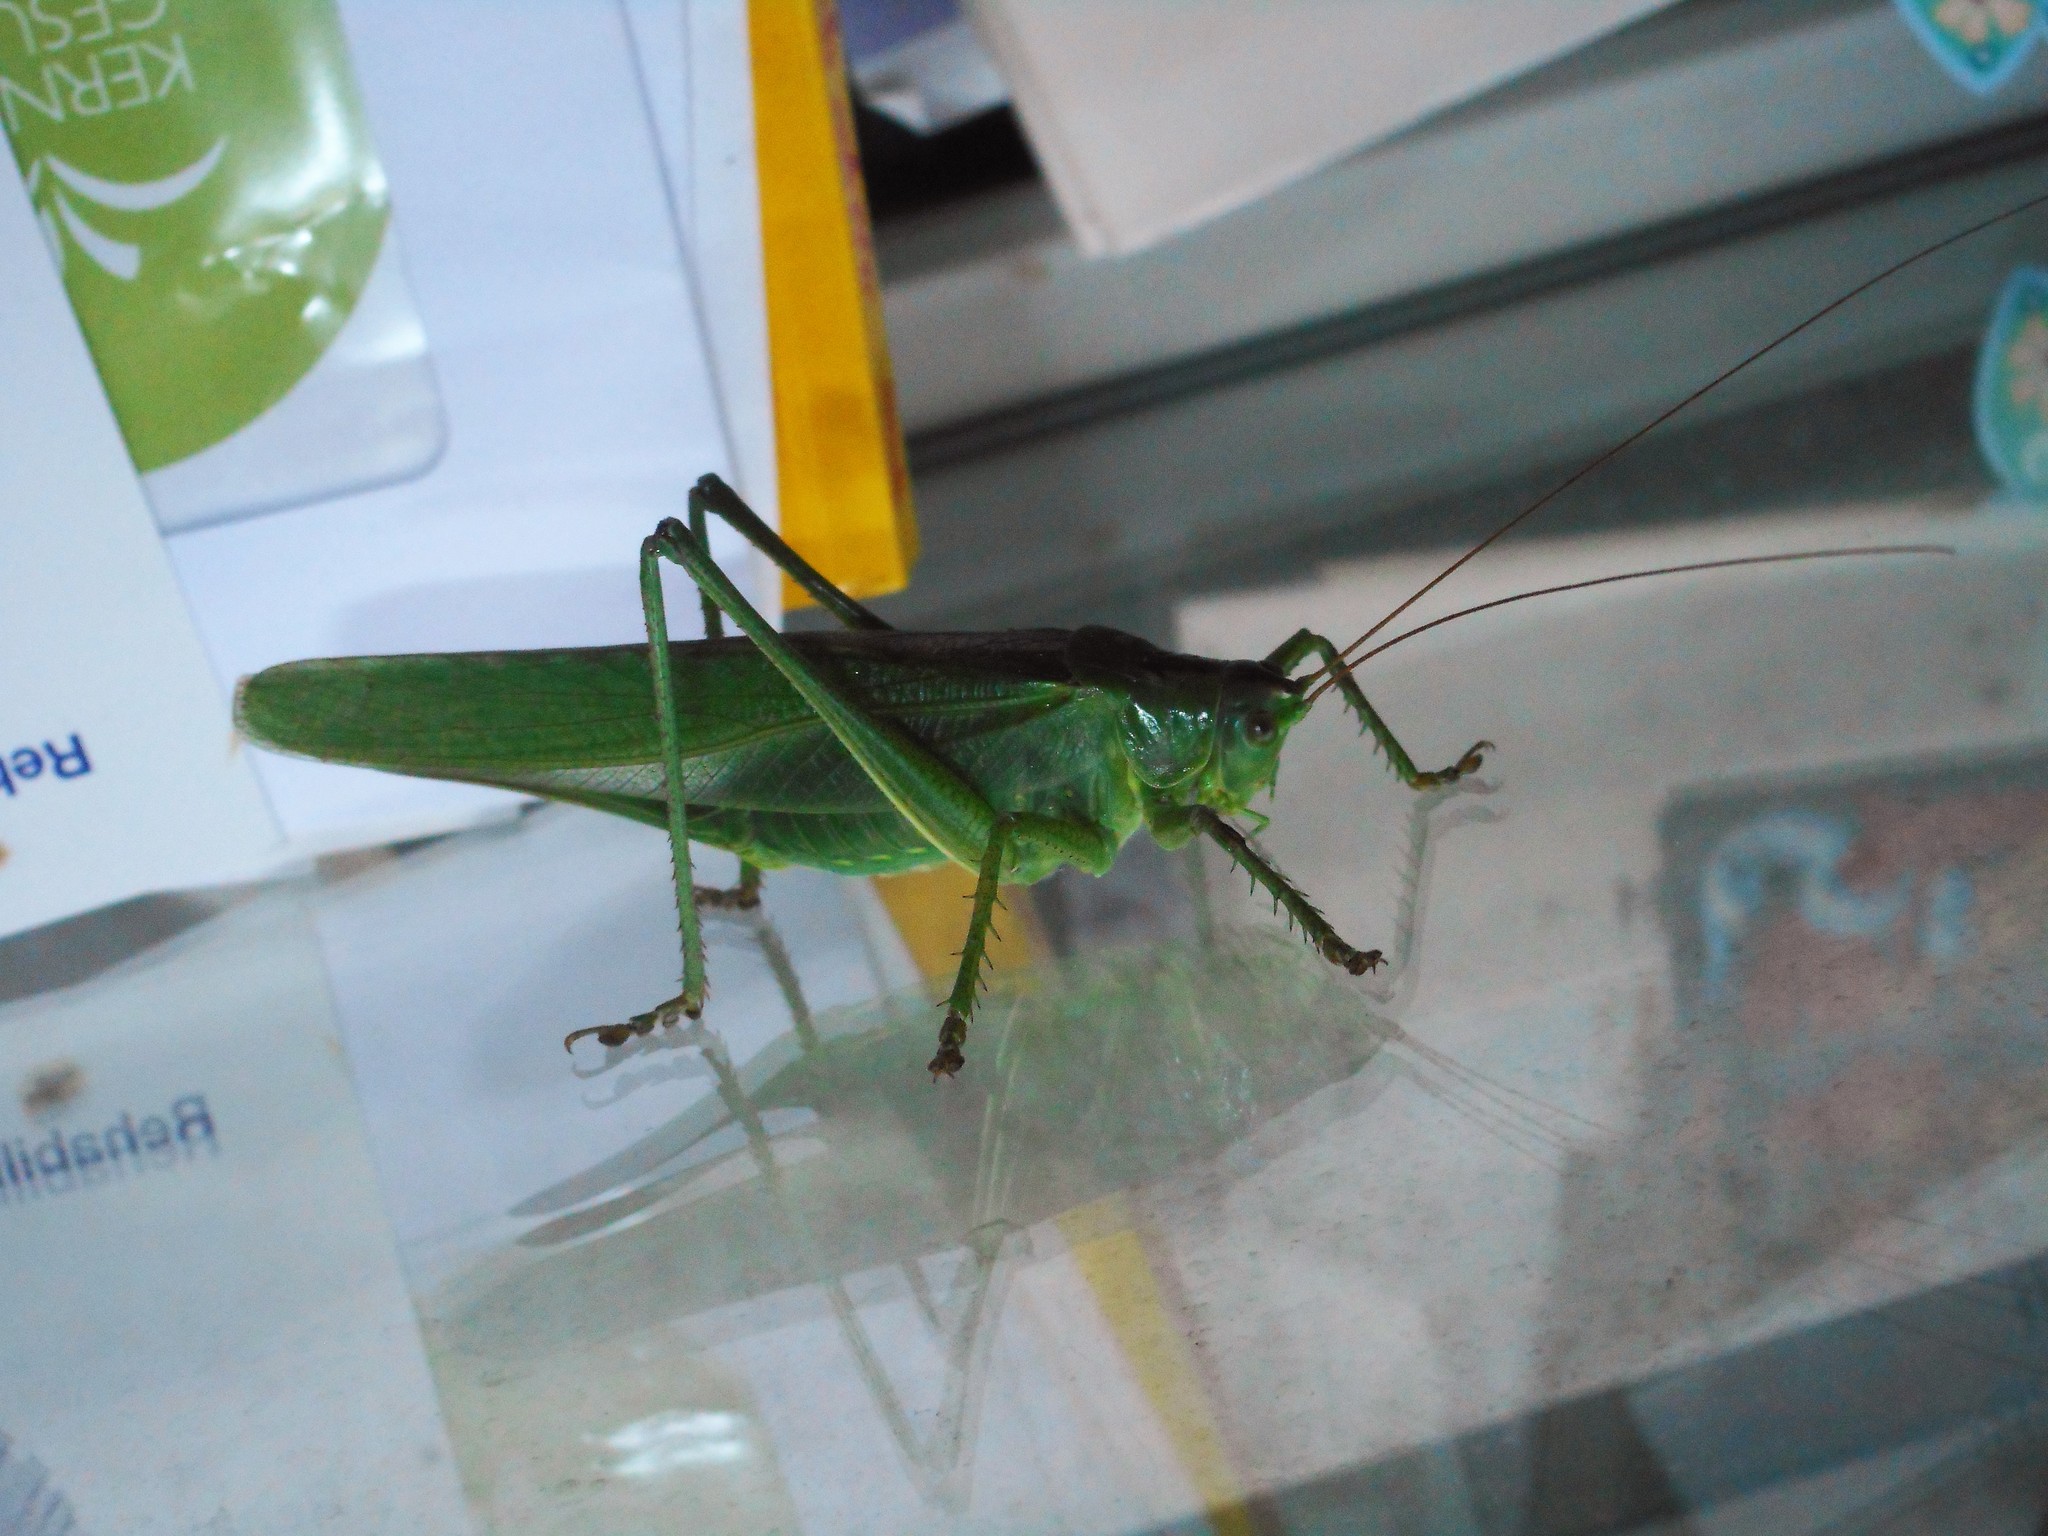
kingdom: Animalia
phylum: Arthropoda
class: Insecta
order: Orthoptera
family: Tettigoniidae
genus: Tettigonia
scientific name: Tettigonia viridissima
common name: Great green bush-cricket
